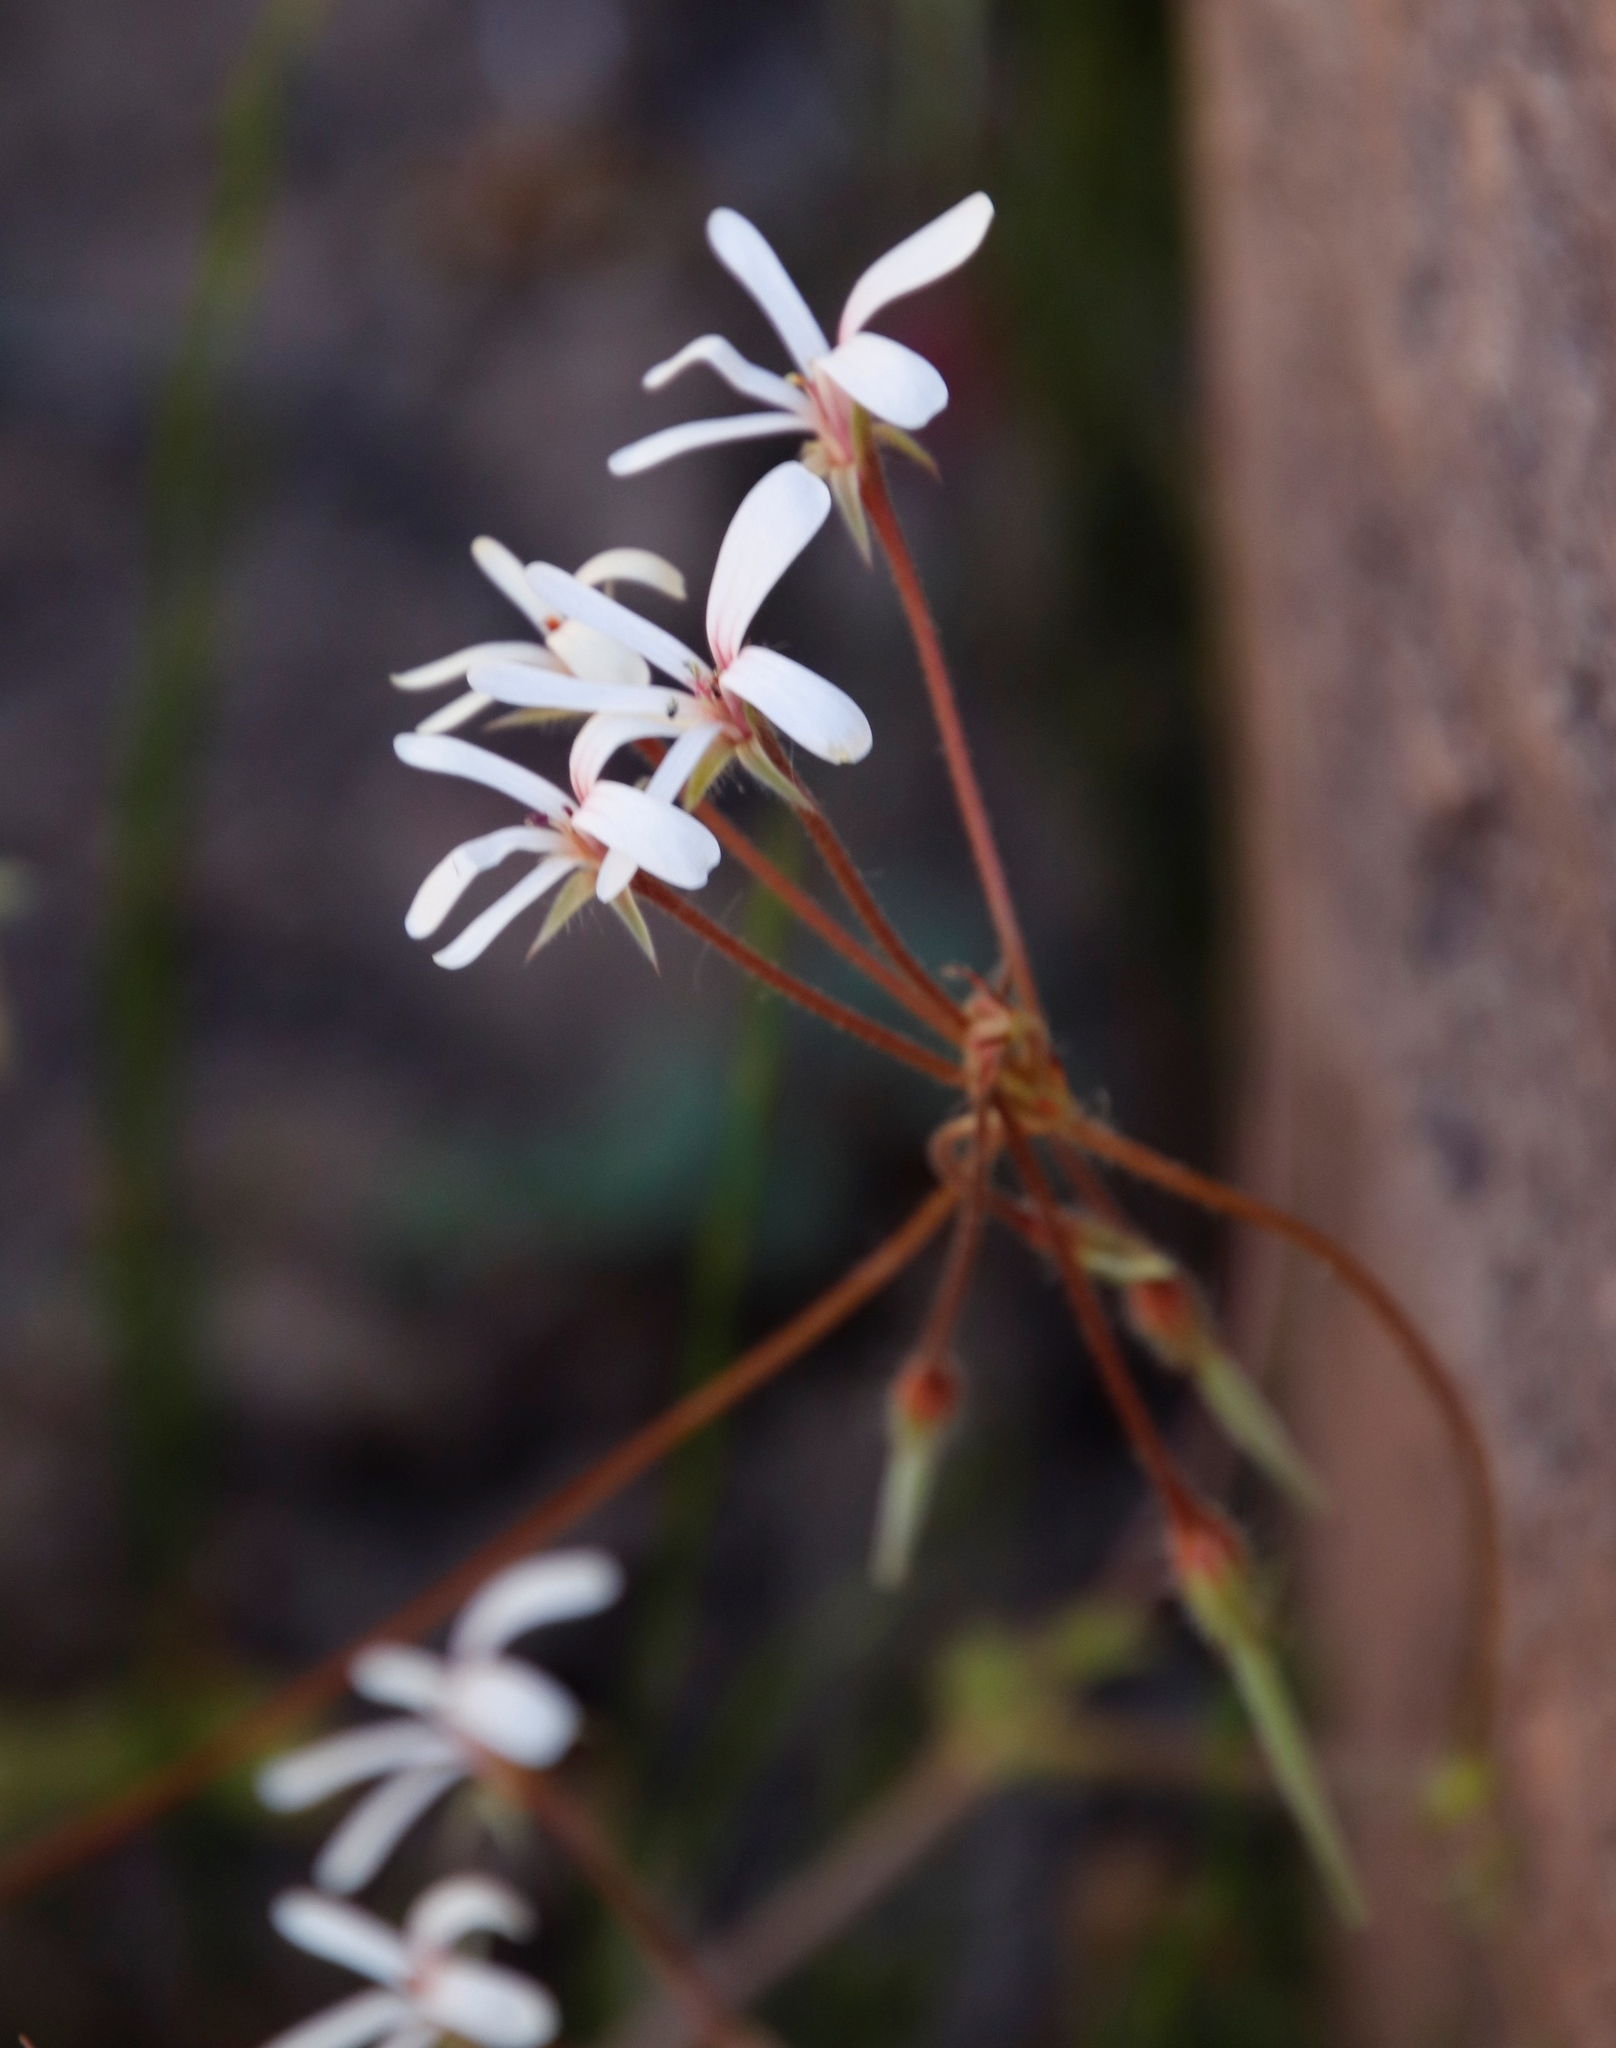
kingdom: Plantae
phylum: Tracheophyta
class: Magnoliopsida
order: Geraniales
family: Geraniaceae
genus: Pelargonium
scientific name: Pelargonium elongatum
